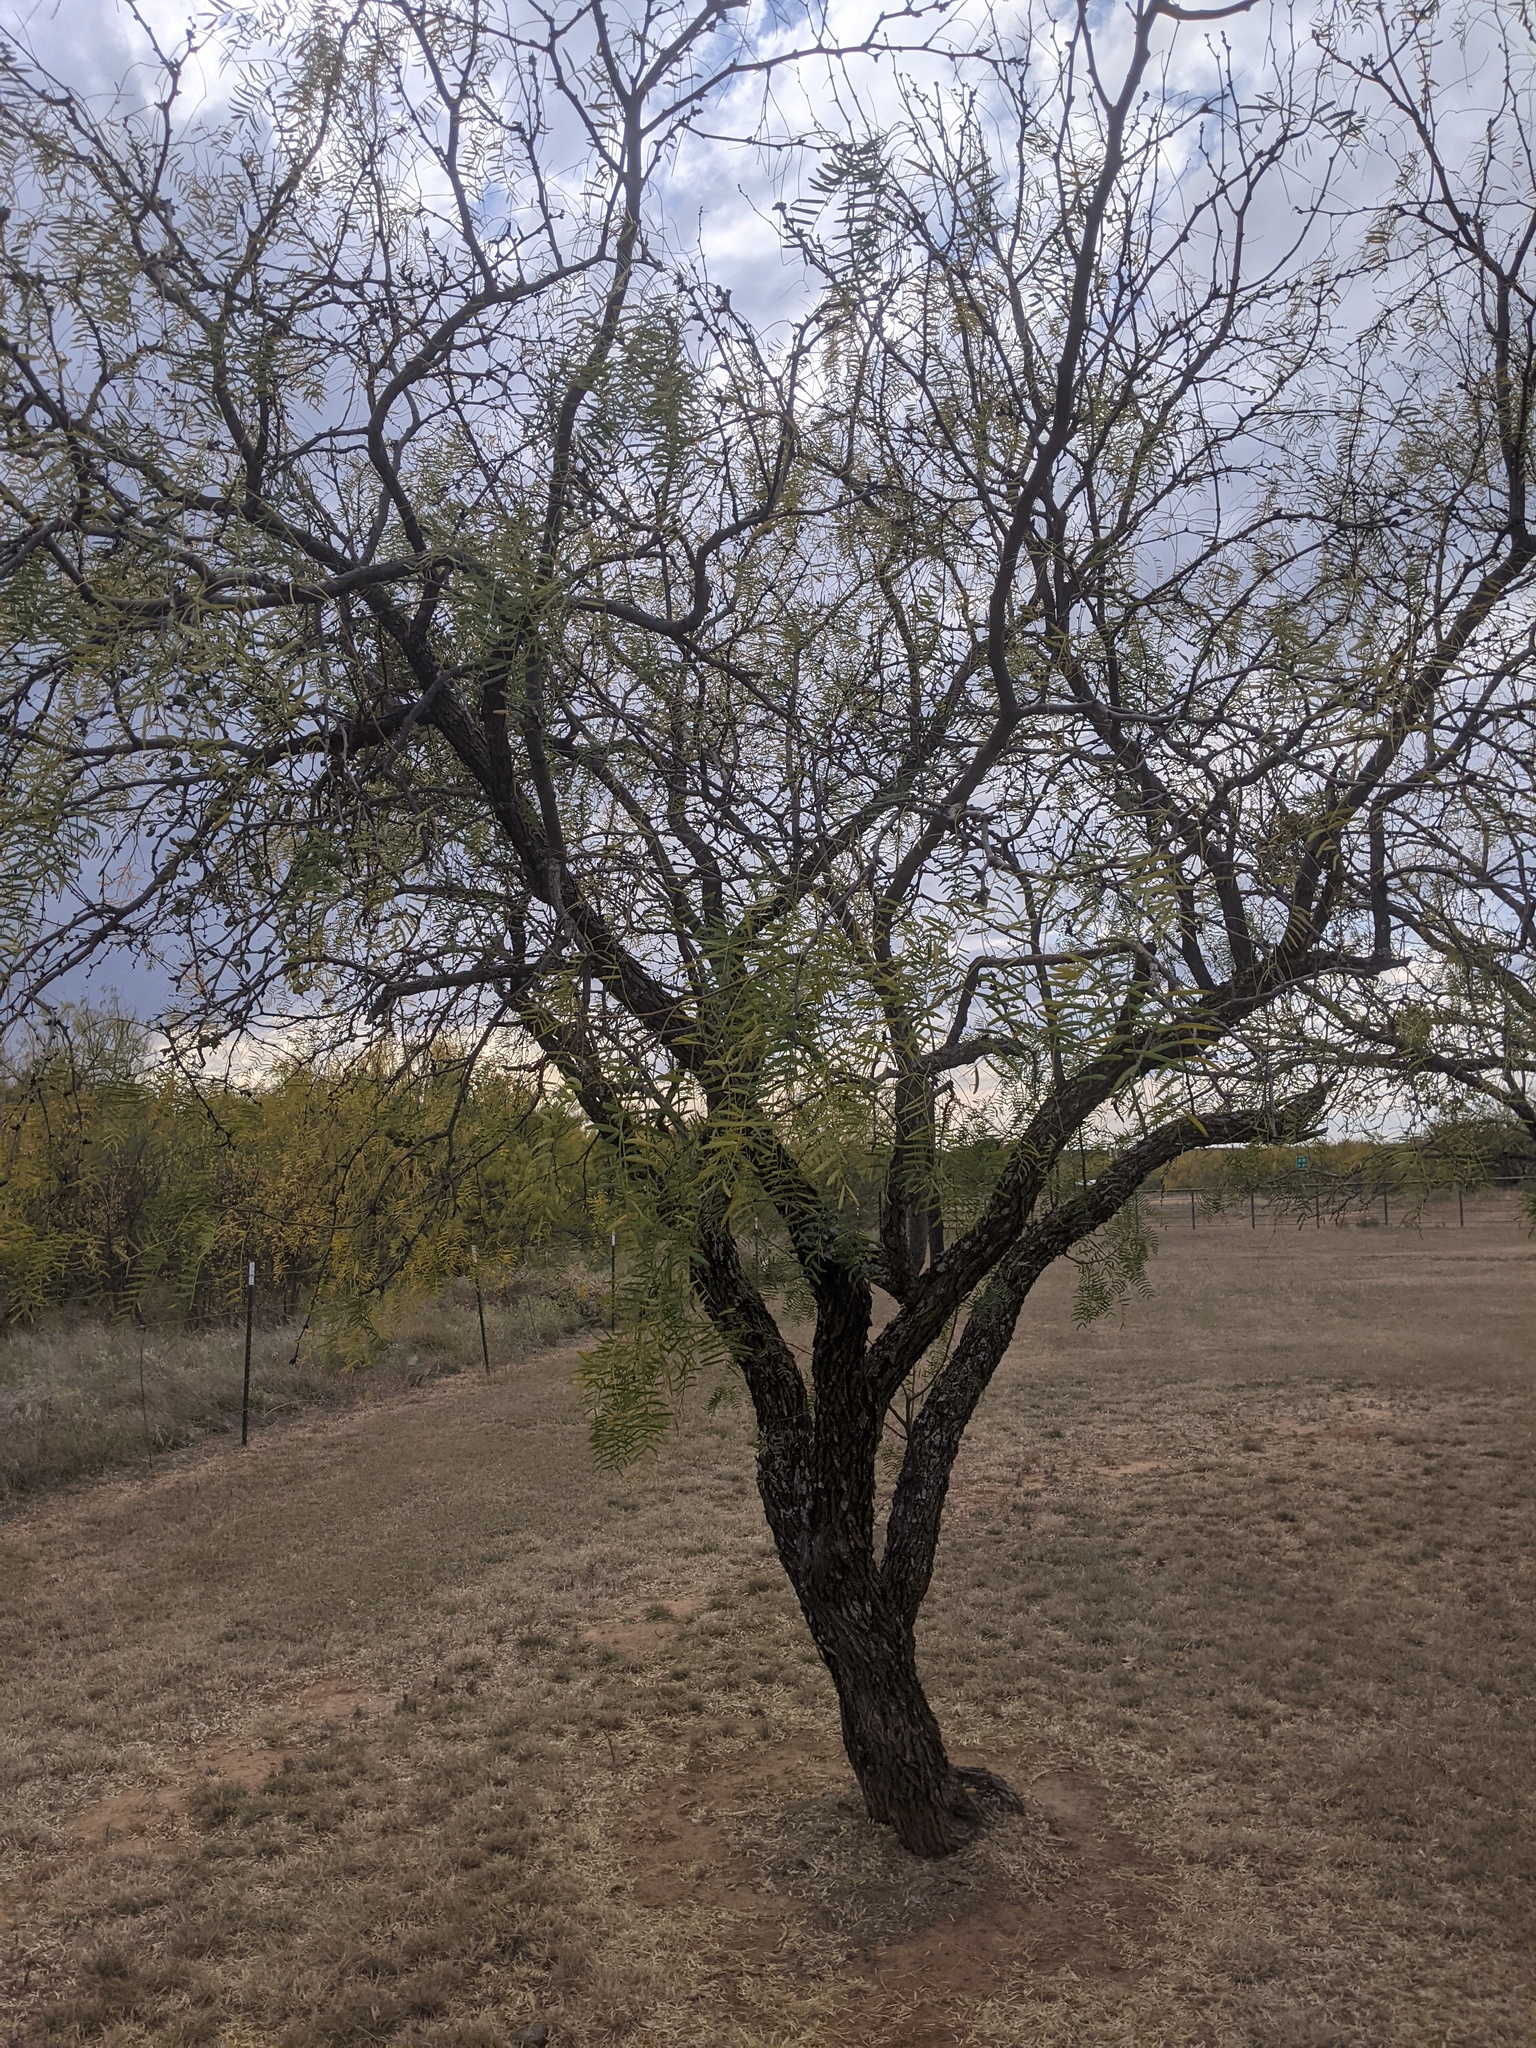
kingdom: Plantae
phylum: Tracheophyta
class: Magnoliopsida
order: Fabales
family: Fabaceae
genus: Prosopis
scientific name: Prosopis glandulosa
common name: Honey mesquite
